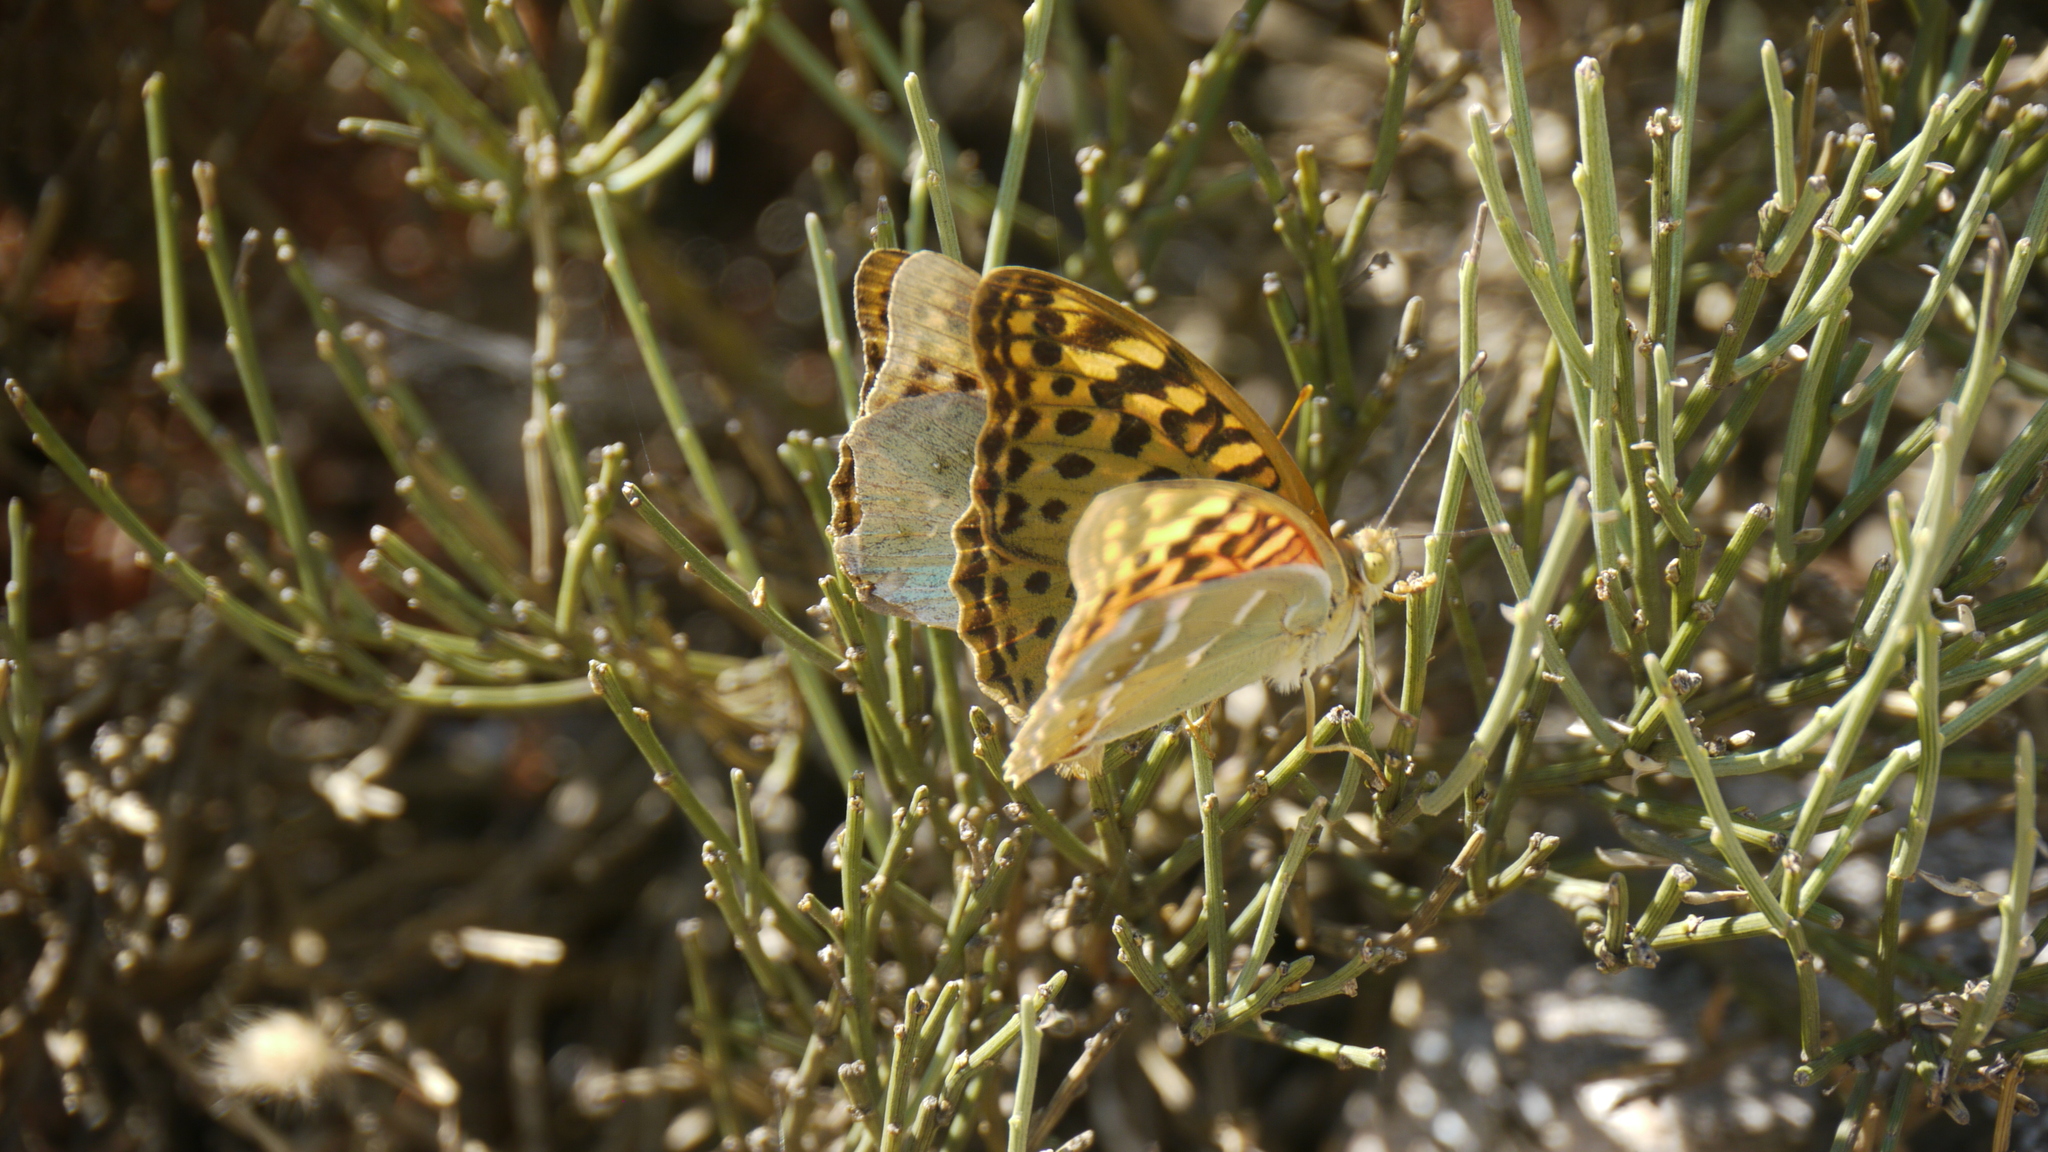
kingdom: Animalia
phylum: Arthropoda
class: Insecta
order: Lepidoptera
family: Nymphalidae
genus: Damora
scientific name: Damora pandora
